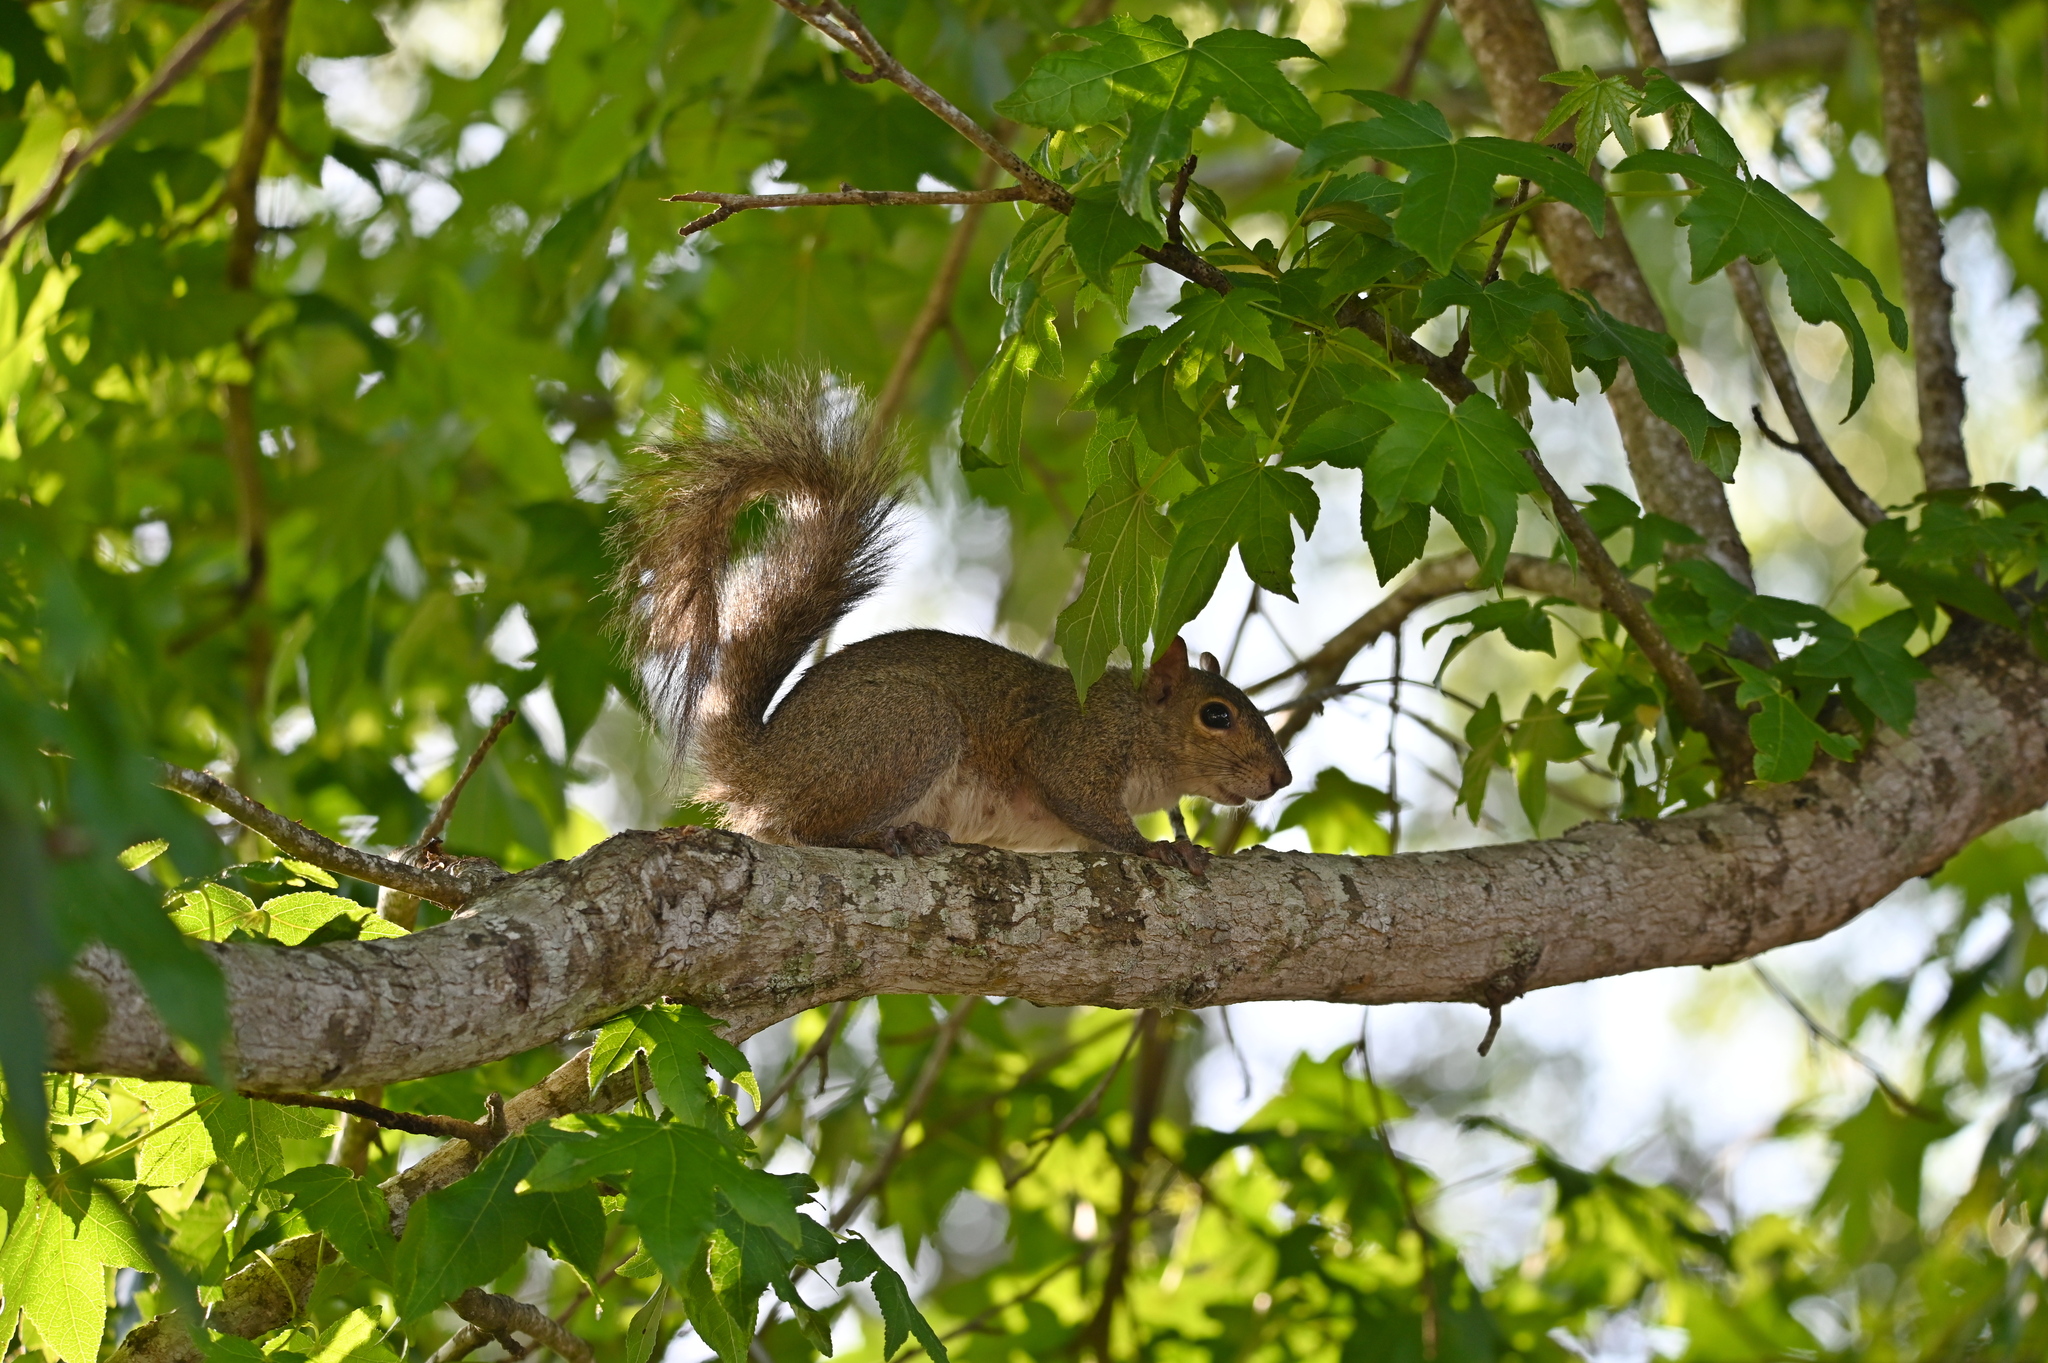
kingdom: Animalia
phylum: Chordata
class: Mammalia
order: Rodentia
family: Sciuridae
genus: Sciurus
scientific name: Sciurus carolinensis
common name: Eastern gray squirrel
